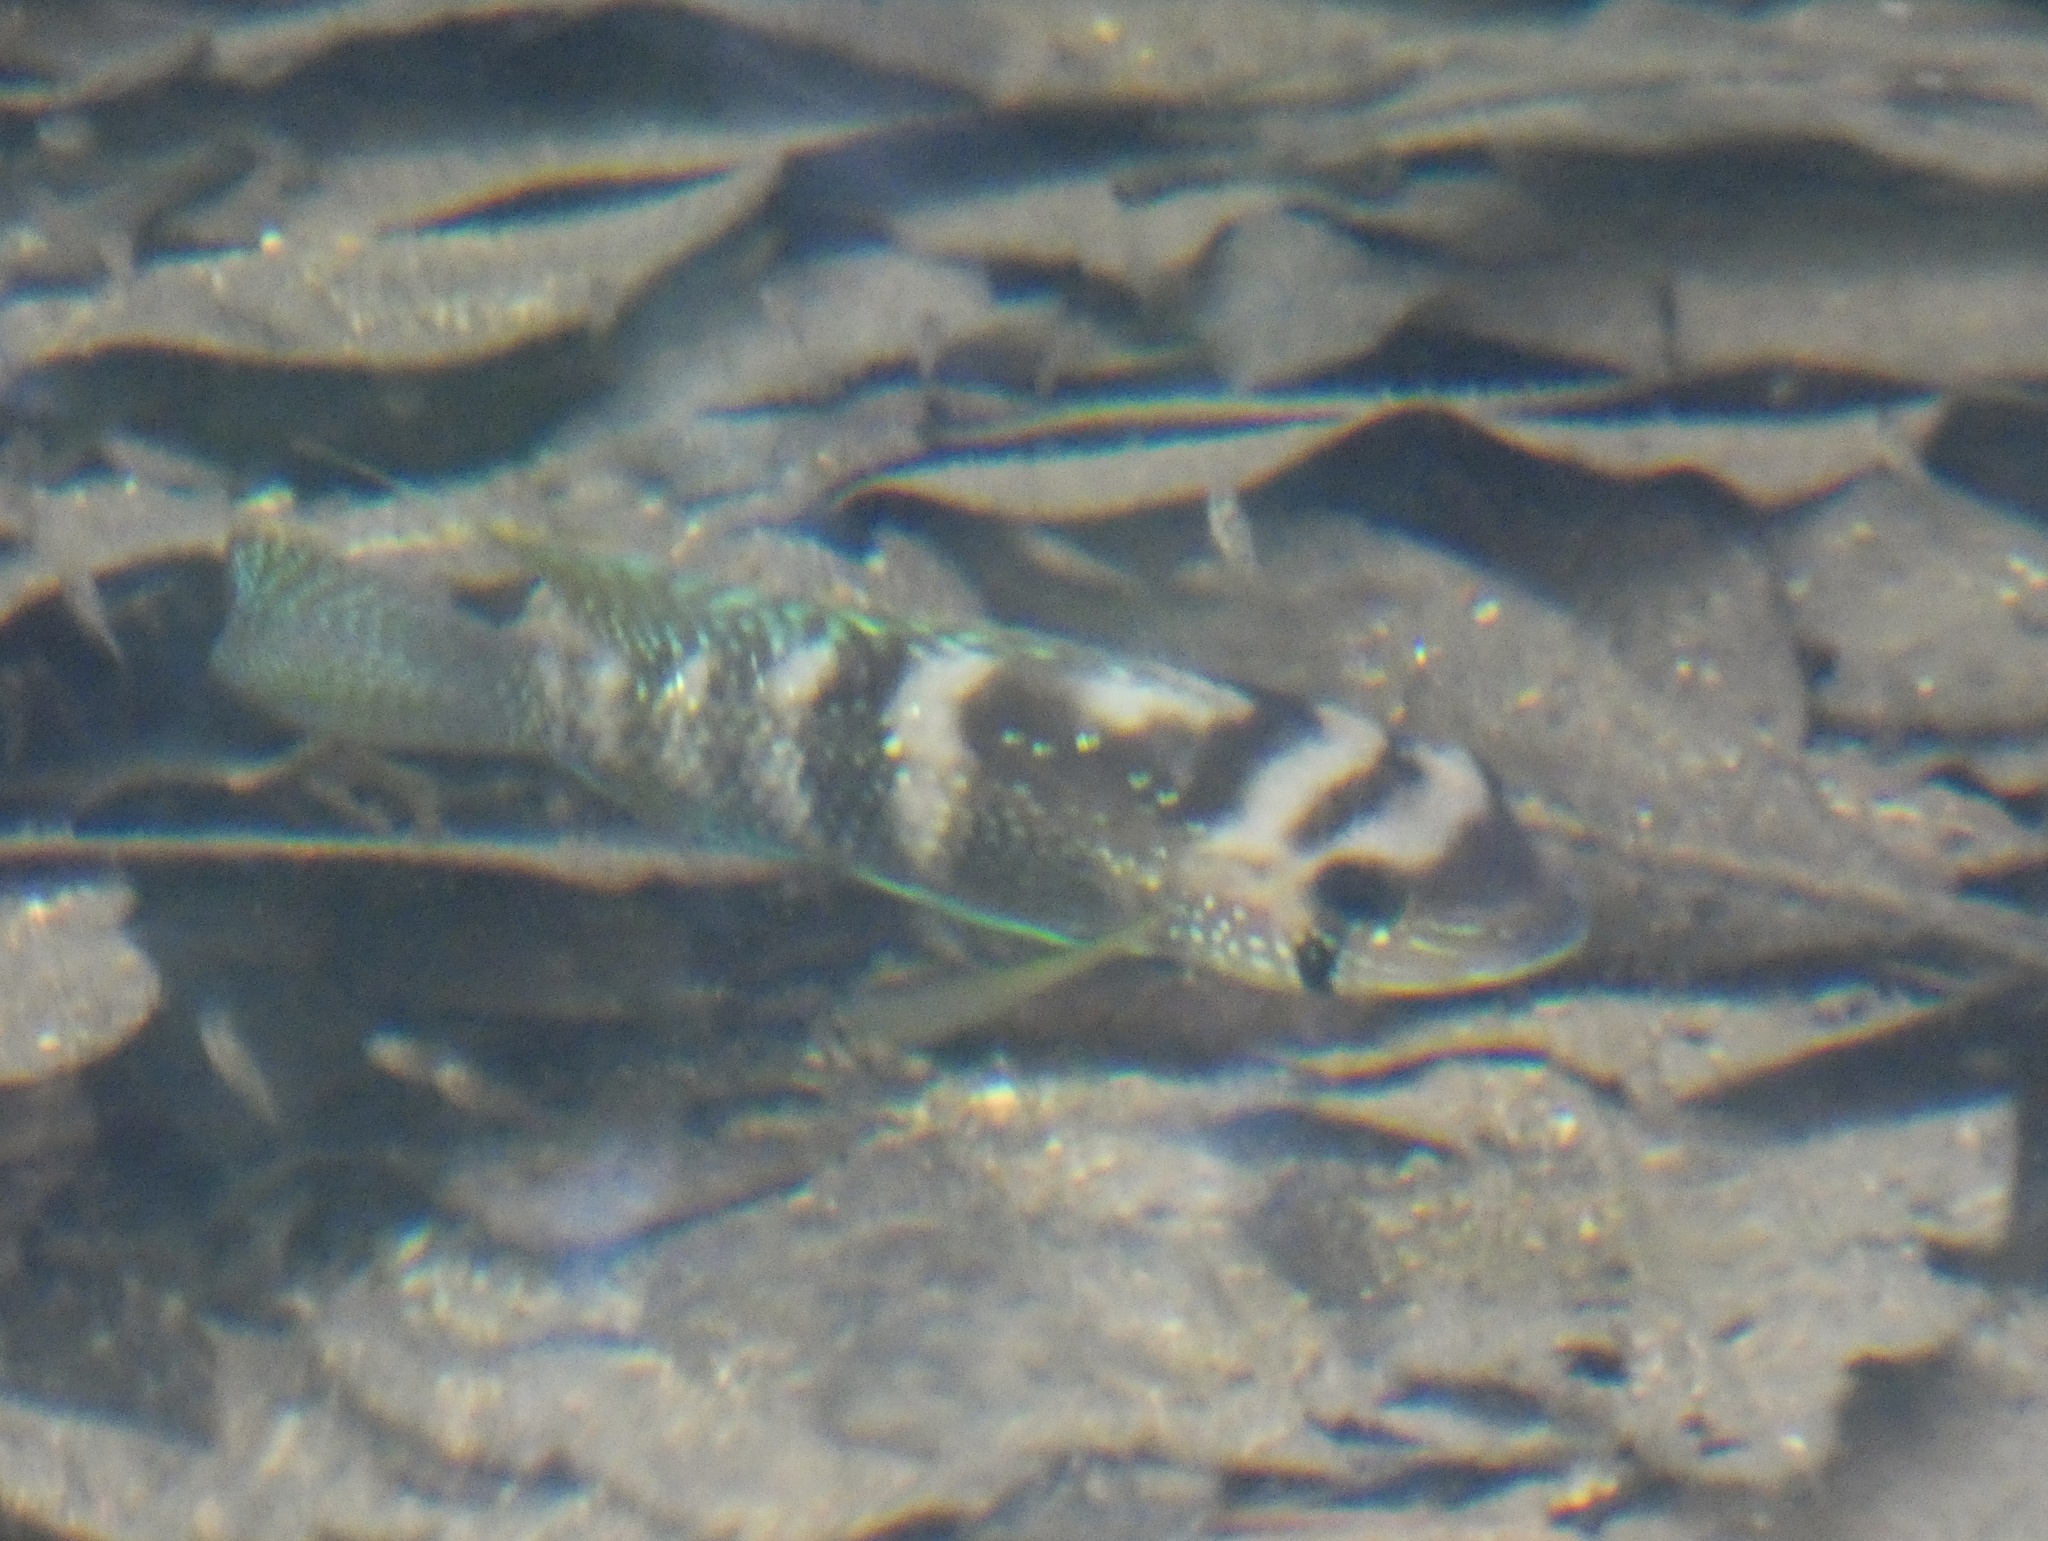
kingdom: Animalia
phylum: Chordata
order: Perciformes
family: Cichlidae
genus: Andinoacara
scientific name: Andinoacara coeruleopunctatus
